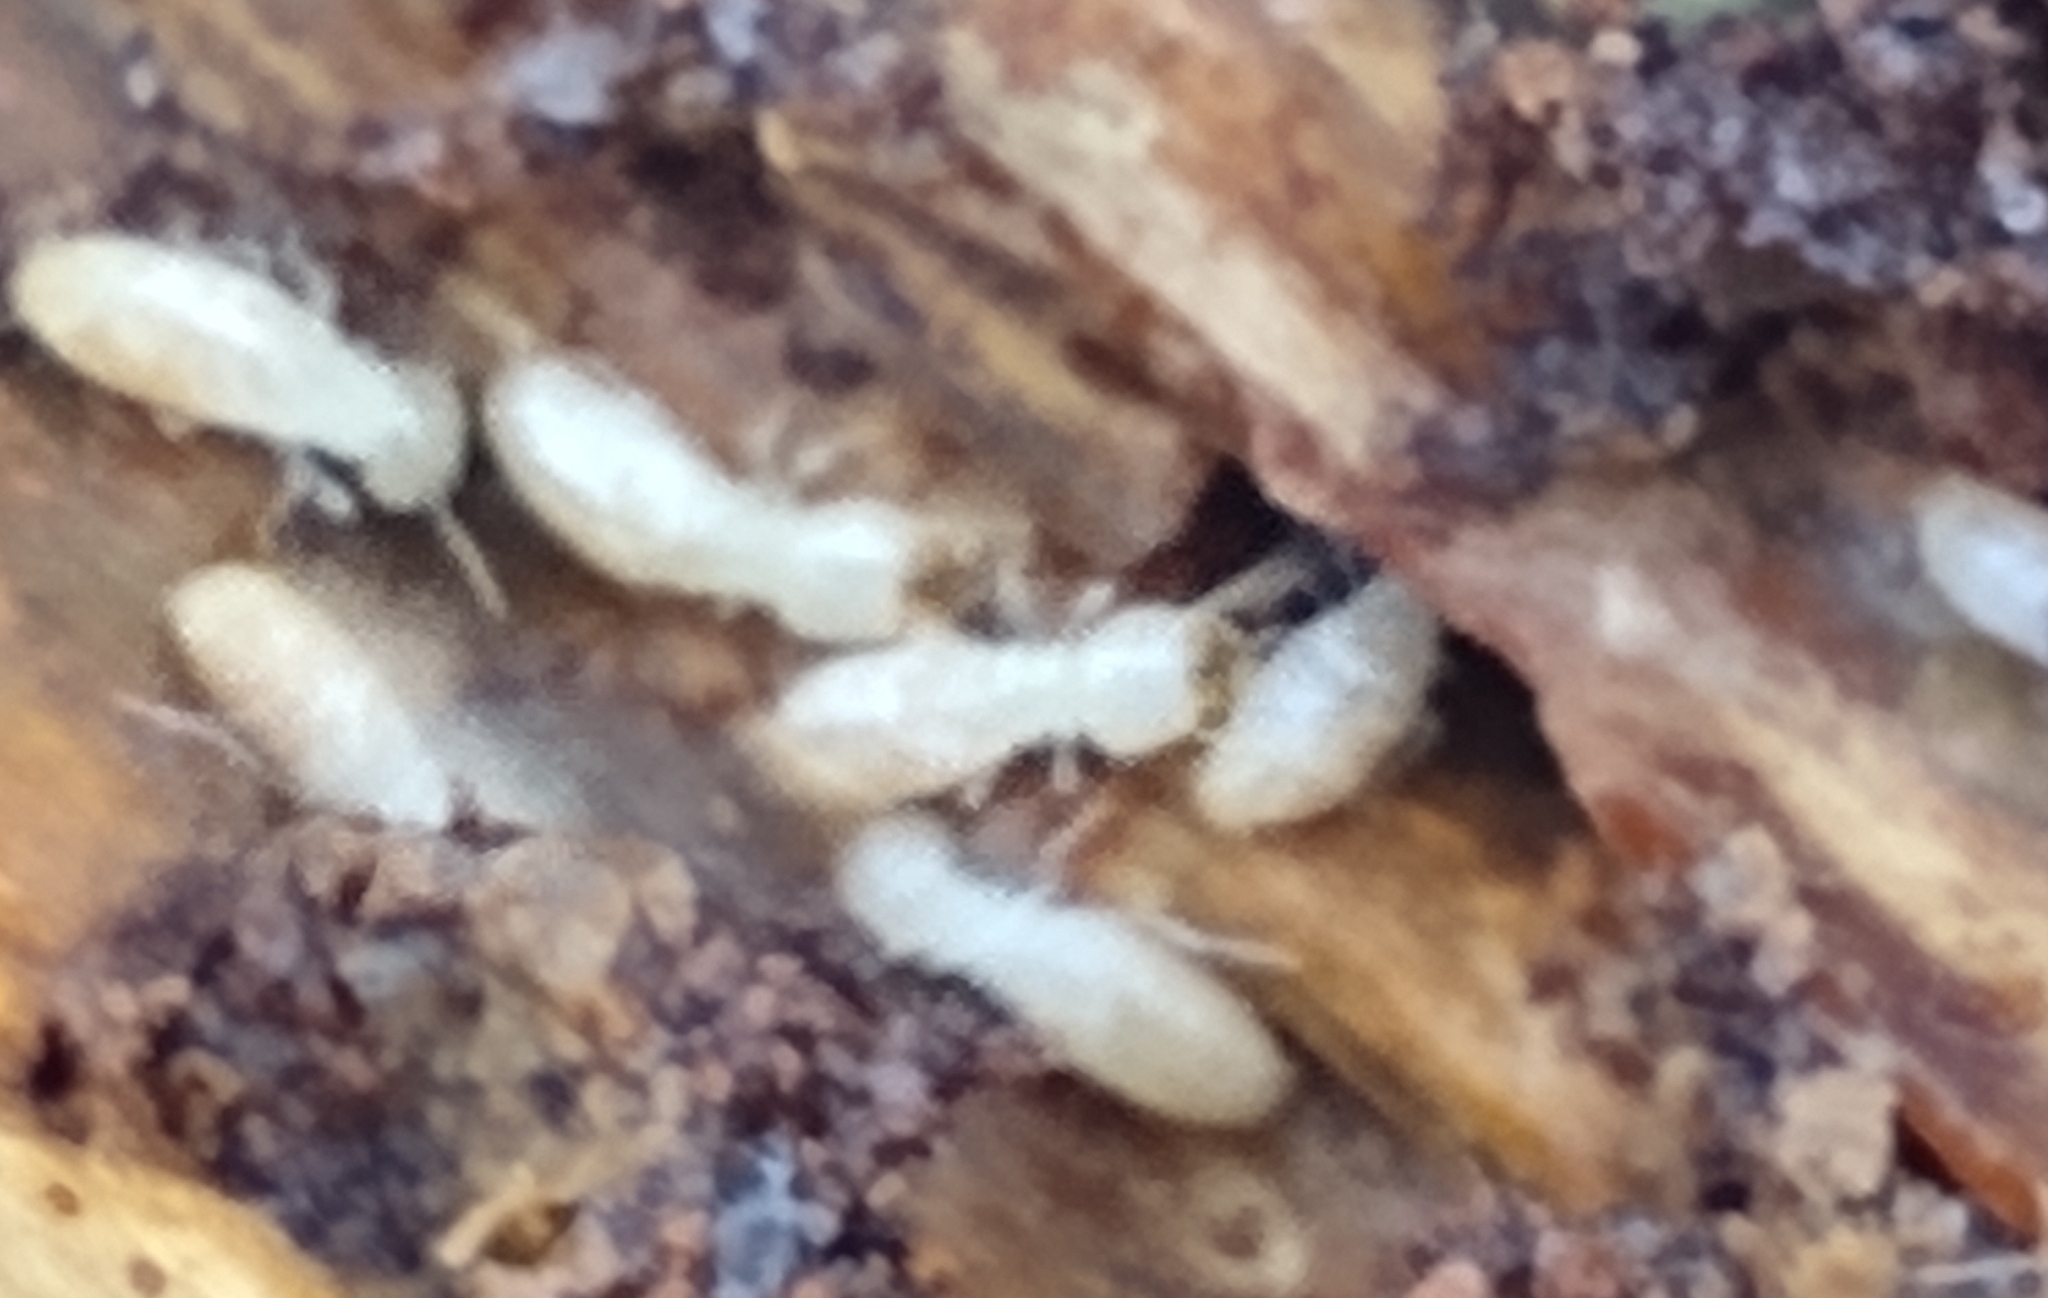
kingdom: Animalia
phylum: Arthropoda
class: Insecta
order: Blattodea
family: Rhinotermitidae
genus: Reticulitermes
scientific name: Reticulitermes flavipes
